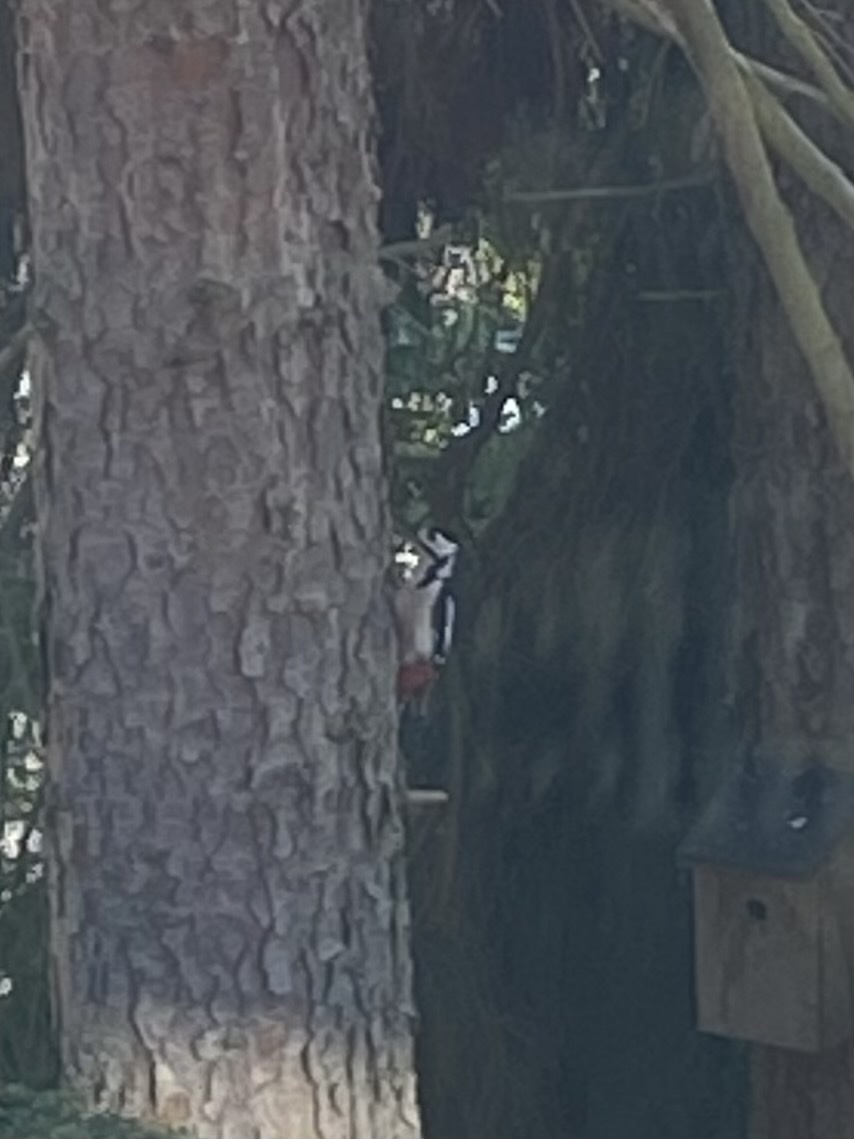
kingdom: Animalia
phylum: Chordata
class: Aves
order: Piciformes
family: Picidae
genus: Dendrocopos
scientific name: Dendrocopos major
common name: Great spotted woodpecker
